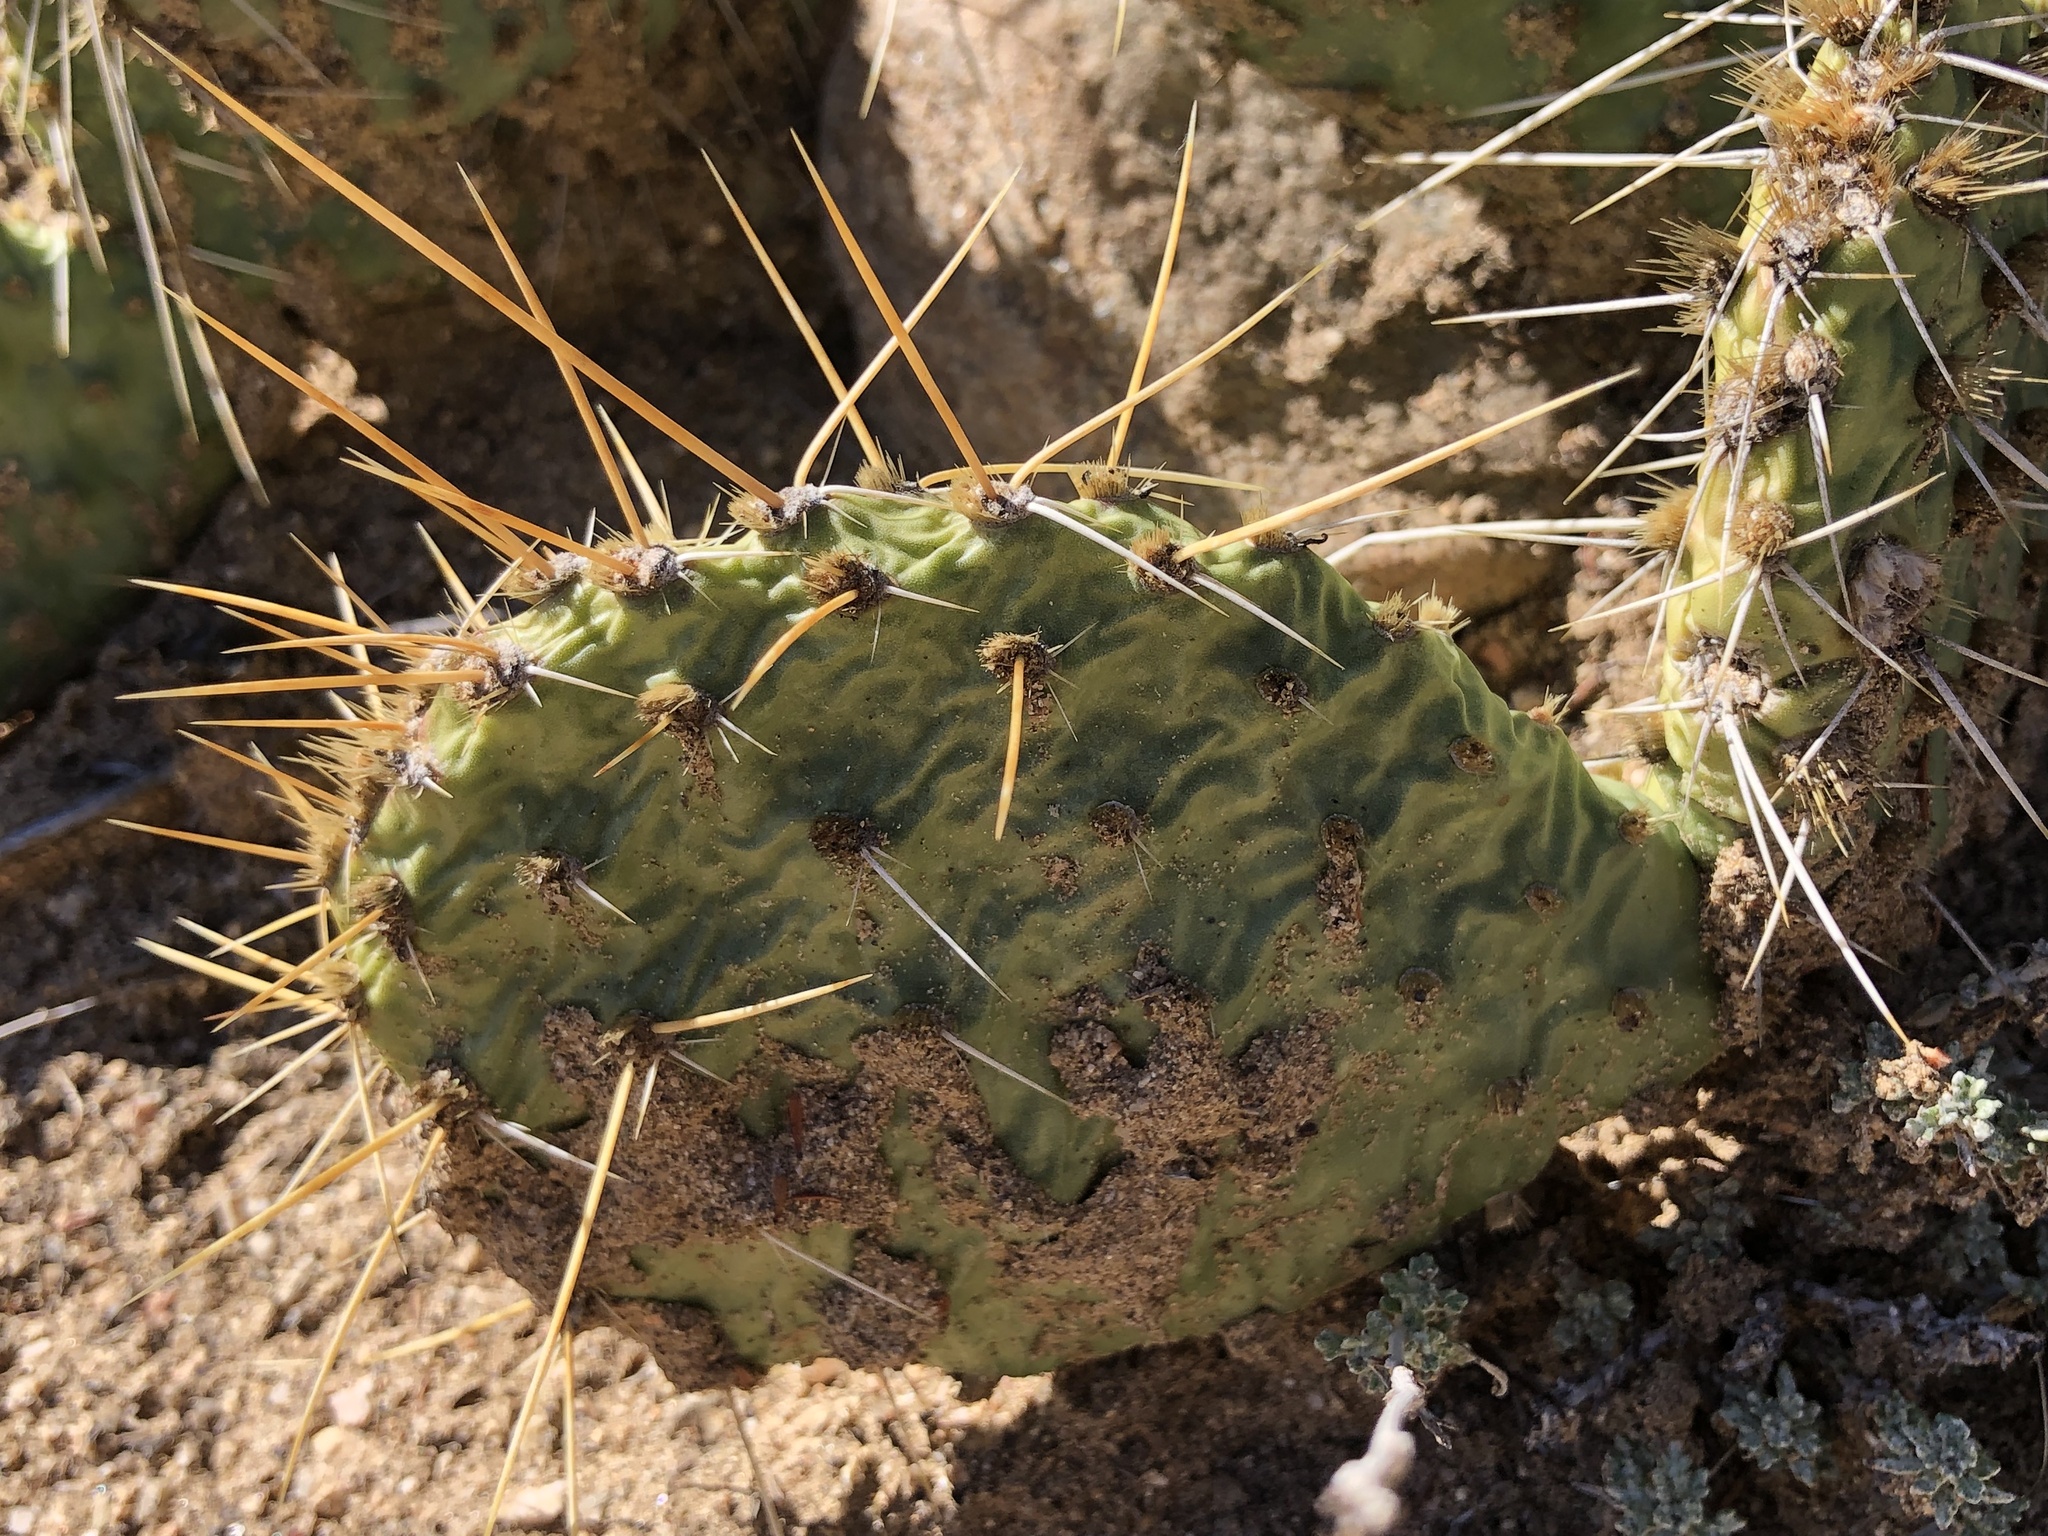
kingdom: Plantae
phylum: Tracheophyta
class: Magnoliopsida
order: Caryophyllales
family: Cactaceae
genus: Opuntia
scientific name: Opuntia phaeacantha
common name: New mexico prickly-pear
